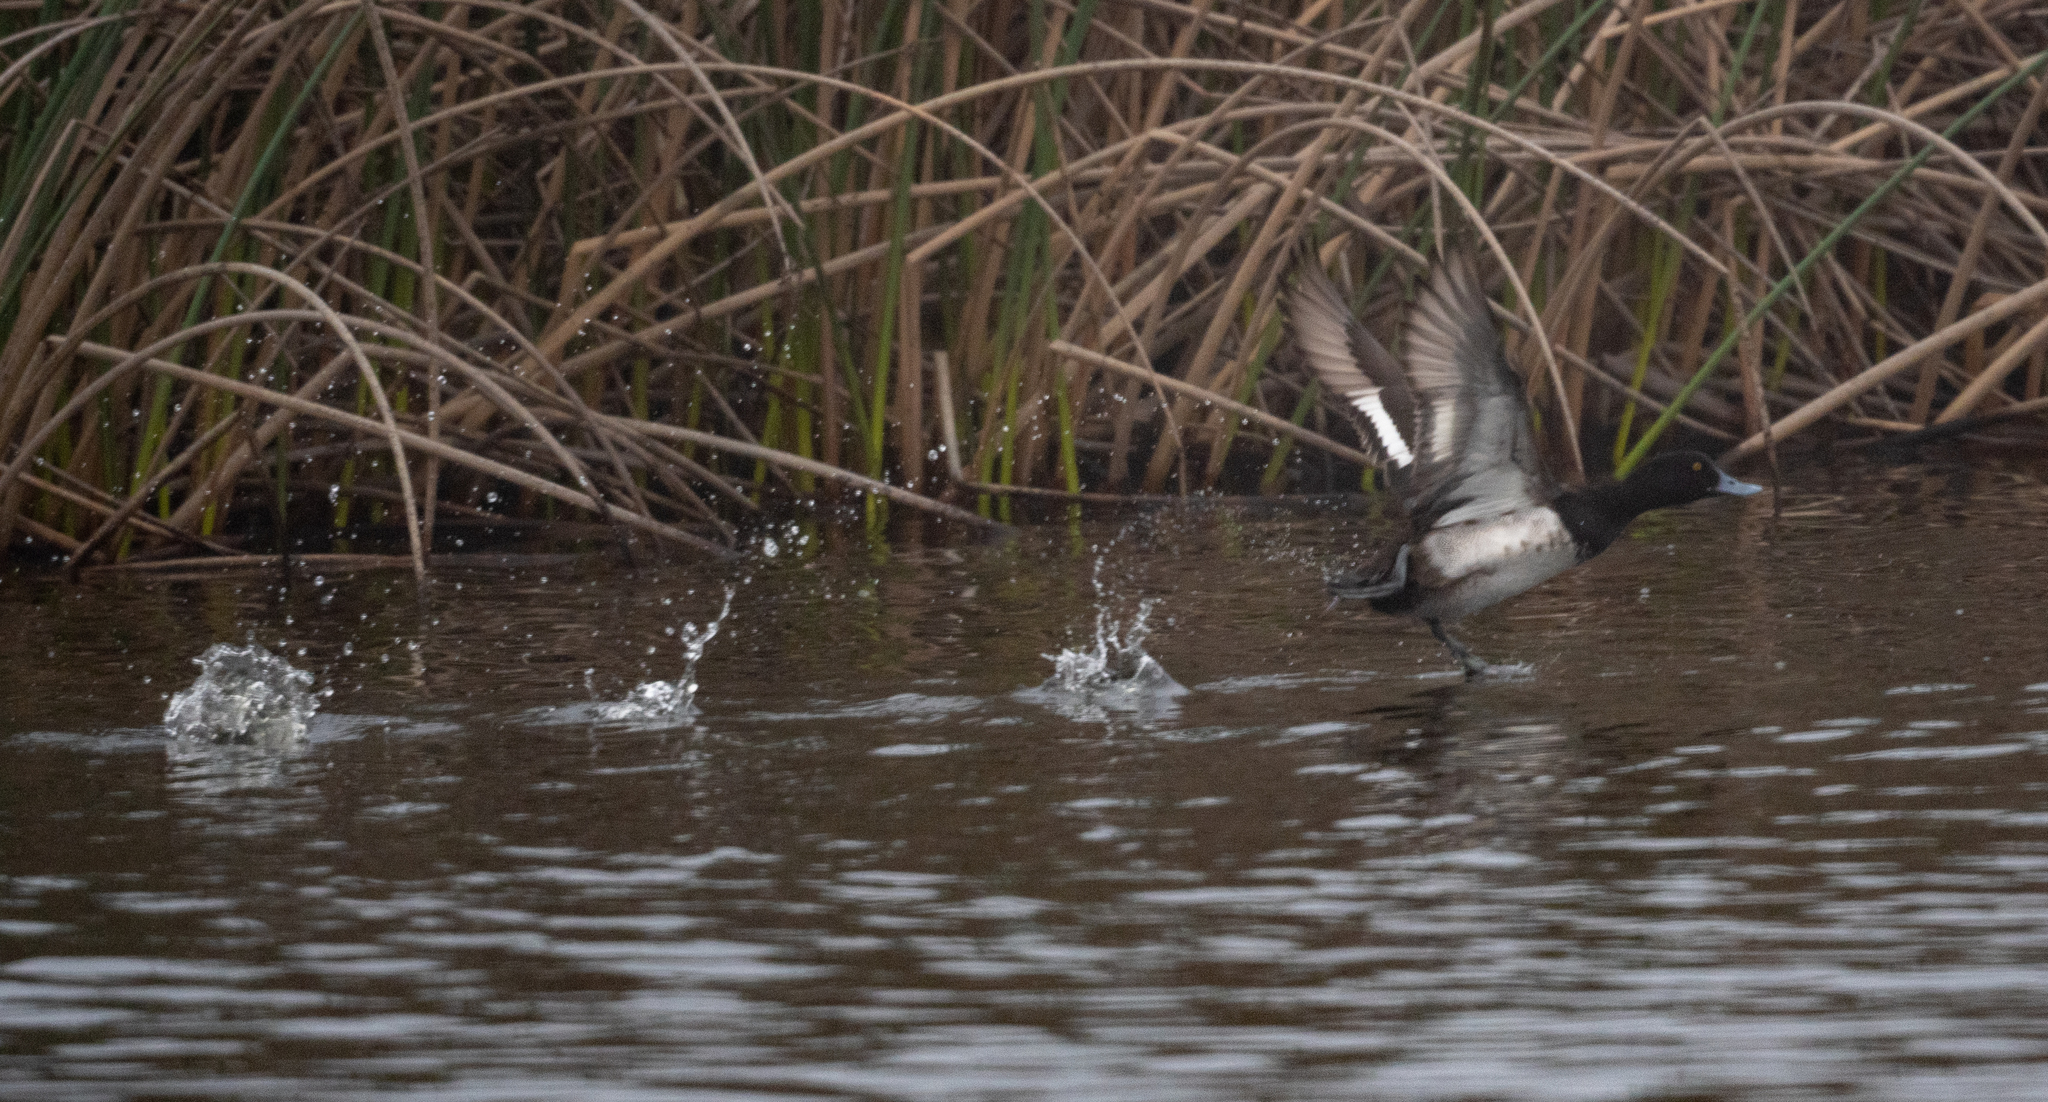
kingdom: Animalia
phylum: Chordata
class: Aves
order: Anseriformes
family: Anatidae
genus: Aythya
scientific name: Aythya affinis
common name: Lesser scaup
